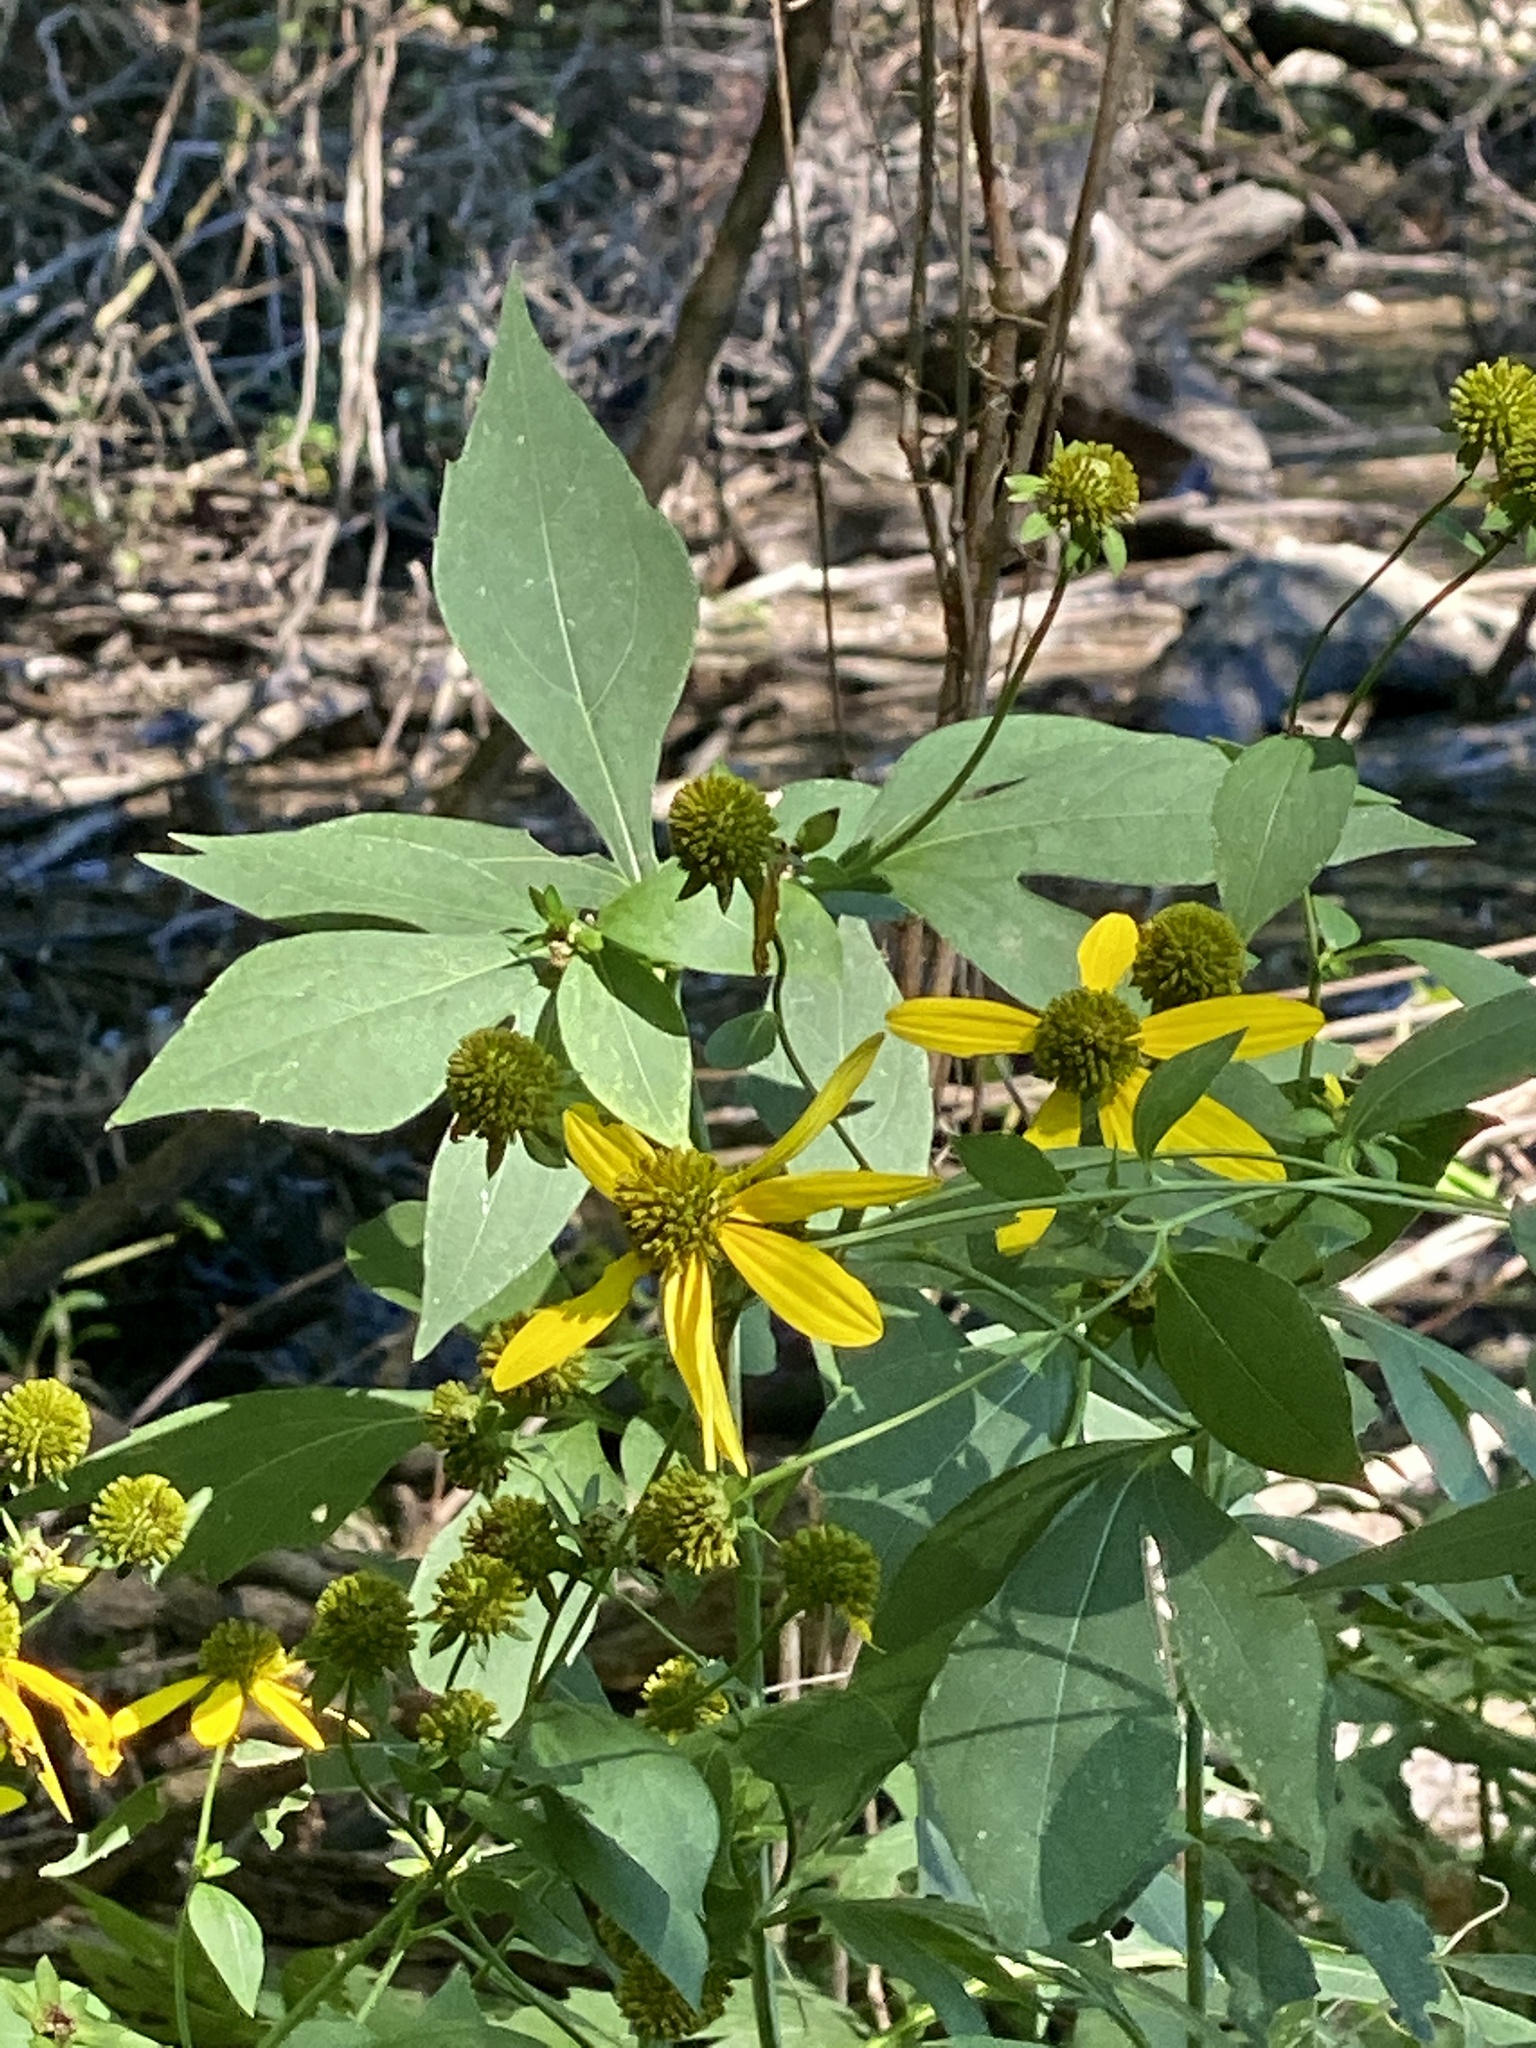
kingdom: Plantae
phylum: Tracheophyta
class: Magnoliopsida
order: Asterales
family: Asteraceae
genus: Rudbeckia
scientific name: Rudbeckia laciniata
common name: Coneflower
